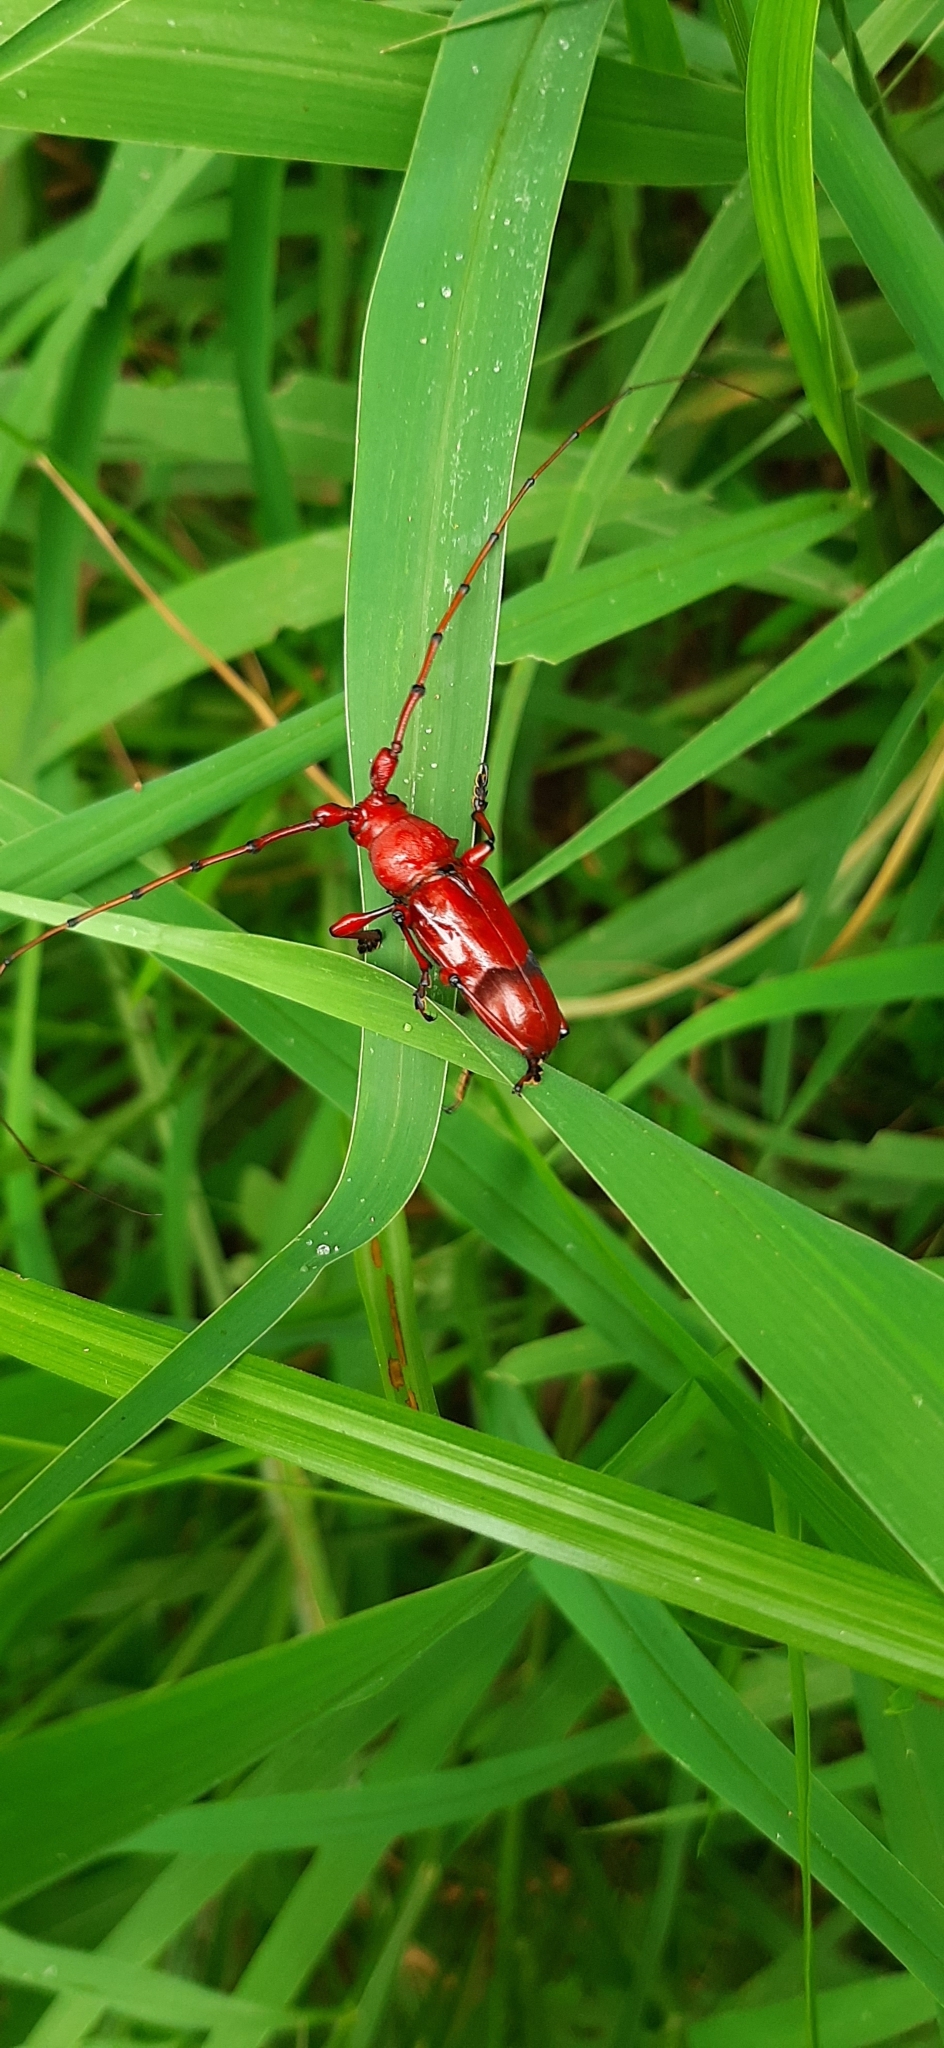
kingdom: Animalia
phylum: Arthropoda
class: Insecta
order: Coleoptera
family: Cerambycidae
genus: Dicelosternus
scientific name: Dicelosternus corallinus
